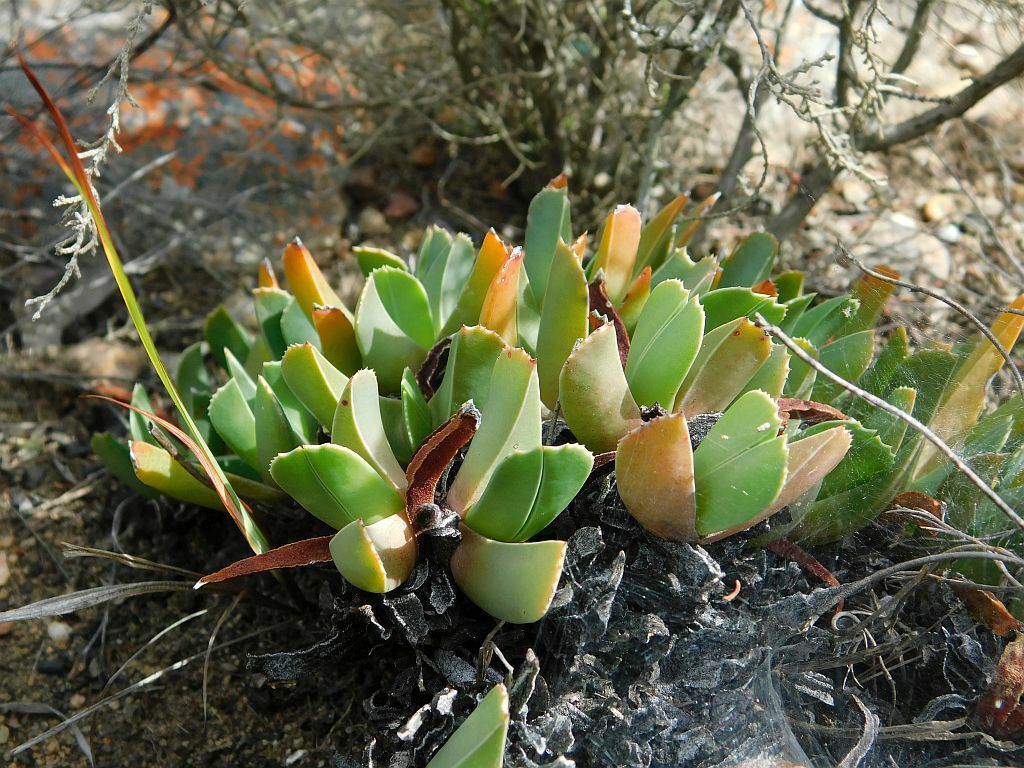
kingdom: Plantae
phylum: Tracheophyta
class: Magnoliopsida
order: Caryophyllales
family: Aizoaceae
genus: Brianhuntleya
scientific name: Brianhuntleya purpureostyla
